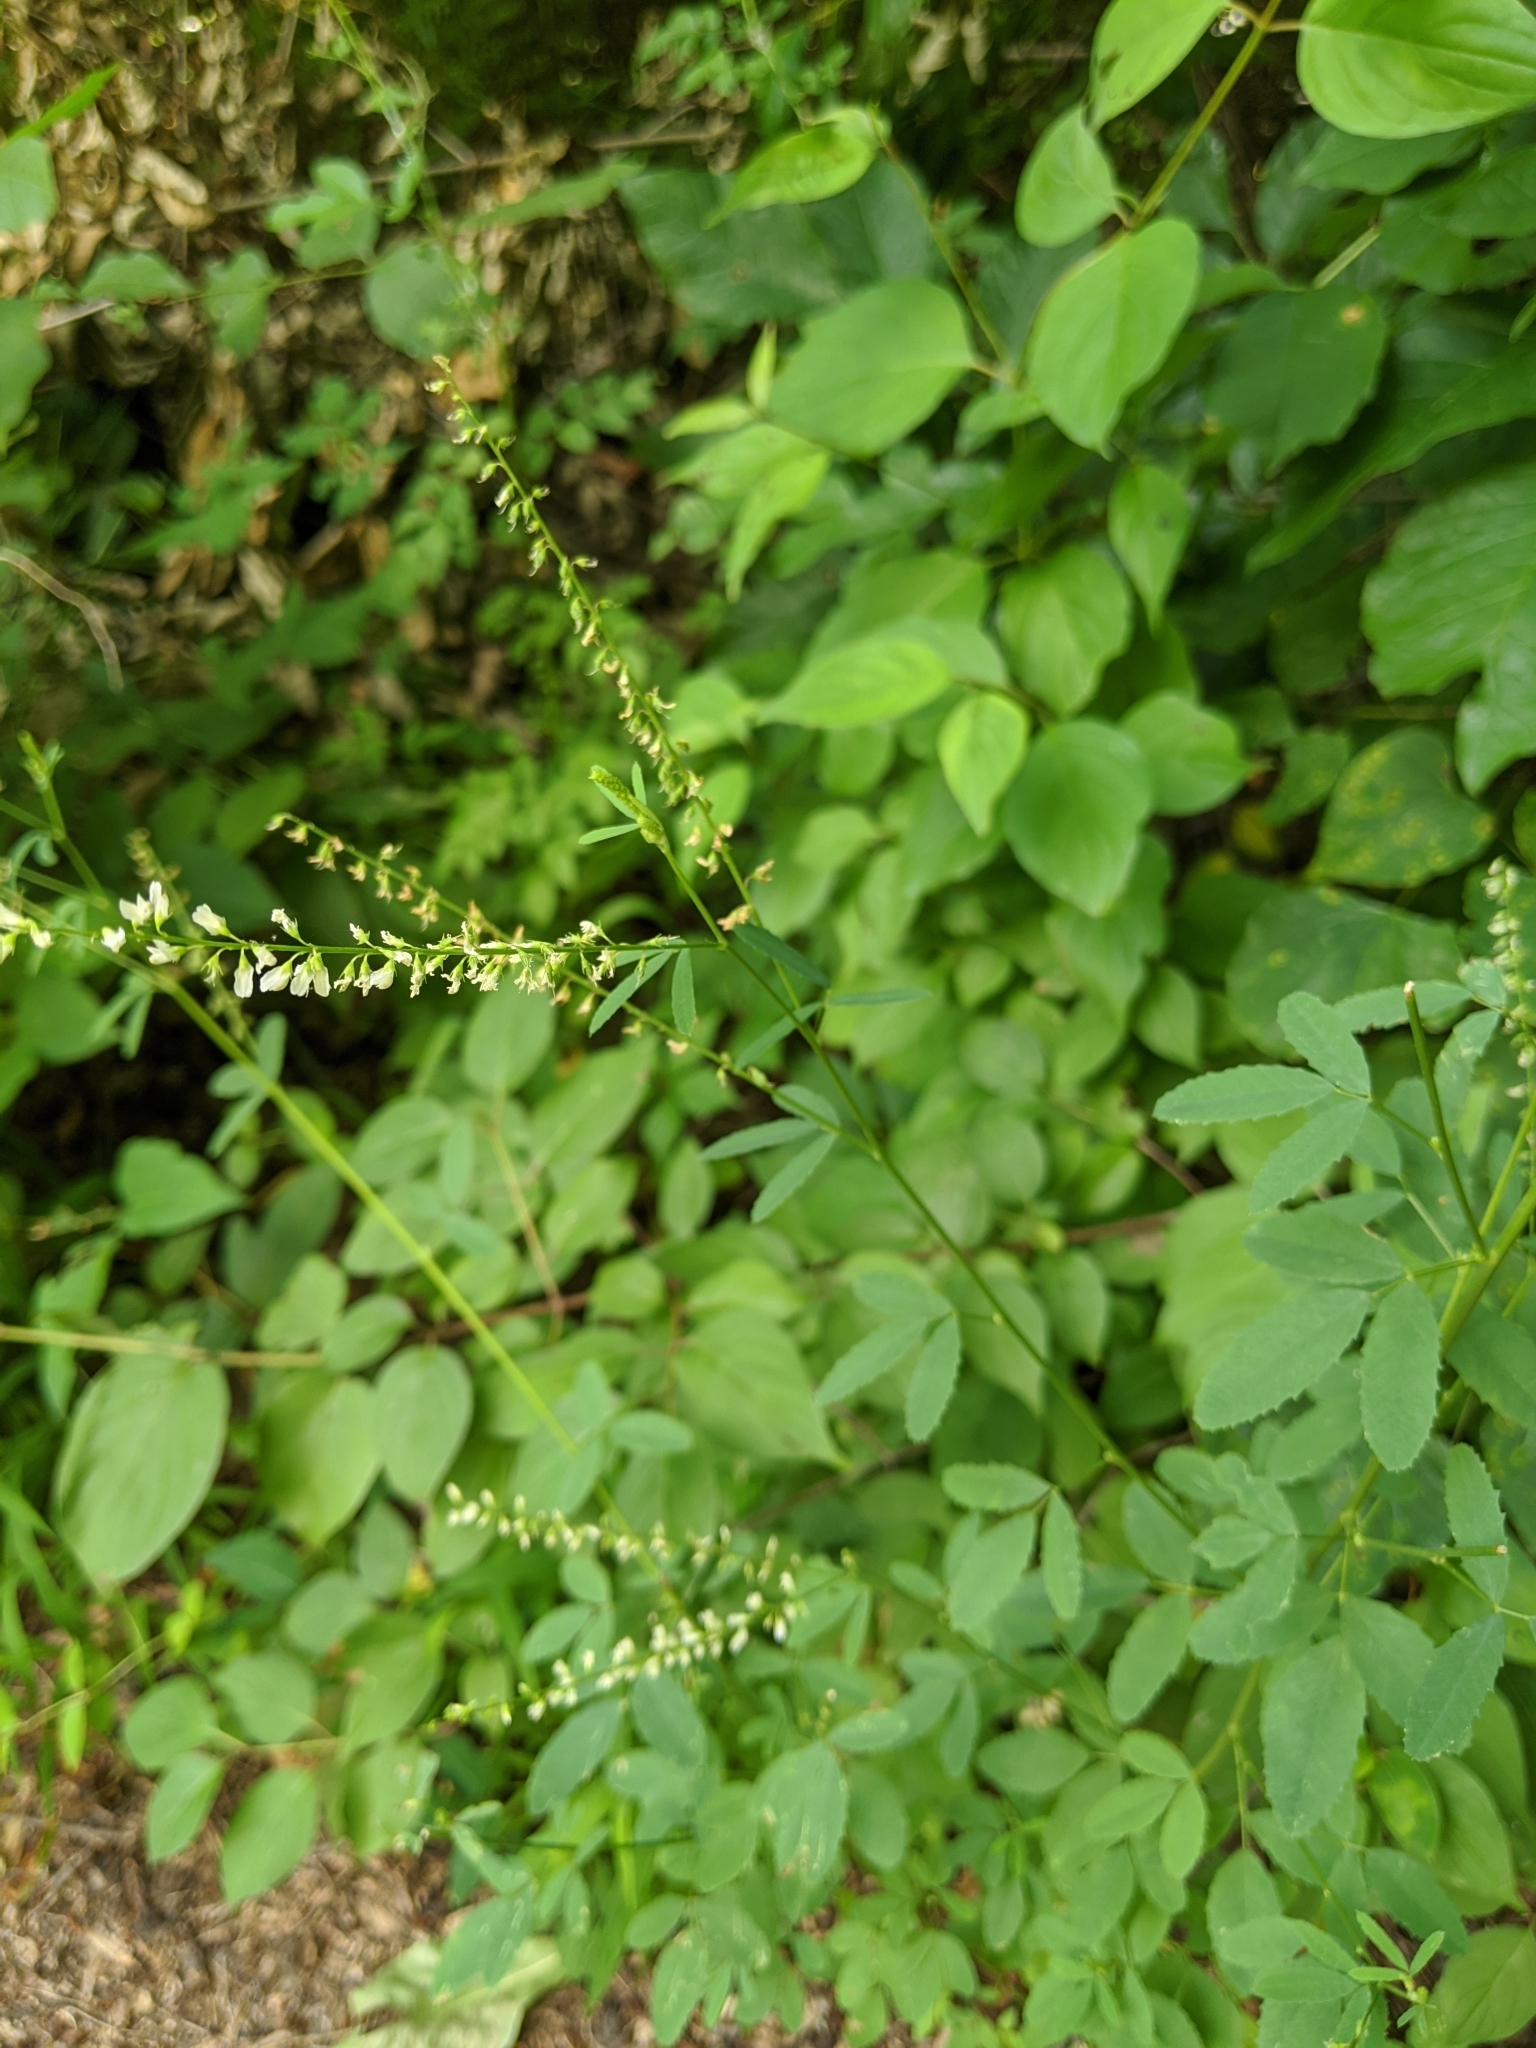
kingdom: Plantae
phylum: Tracheophyta
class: Magnoliopsida
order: Fabales
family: Fabaceae
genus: Melilotus
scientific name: Melilotus albus
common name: White melilot
